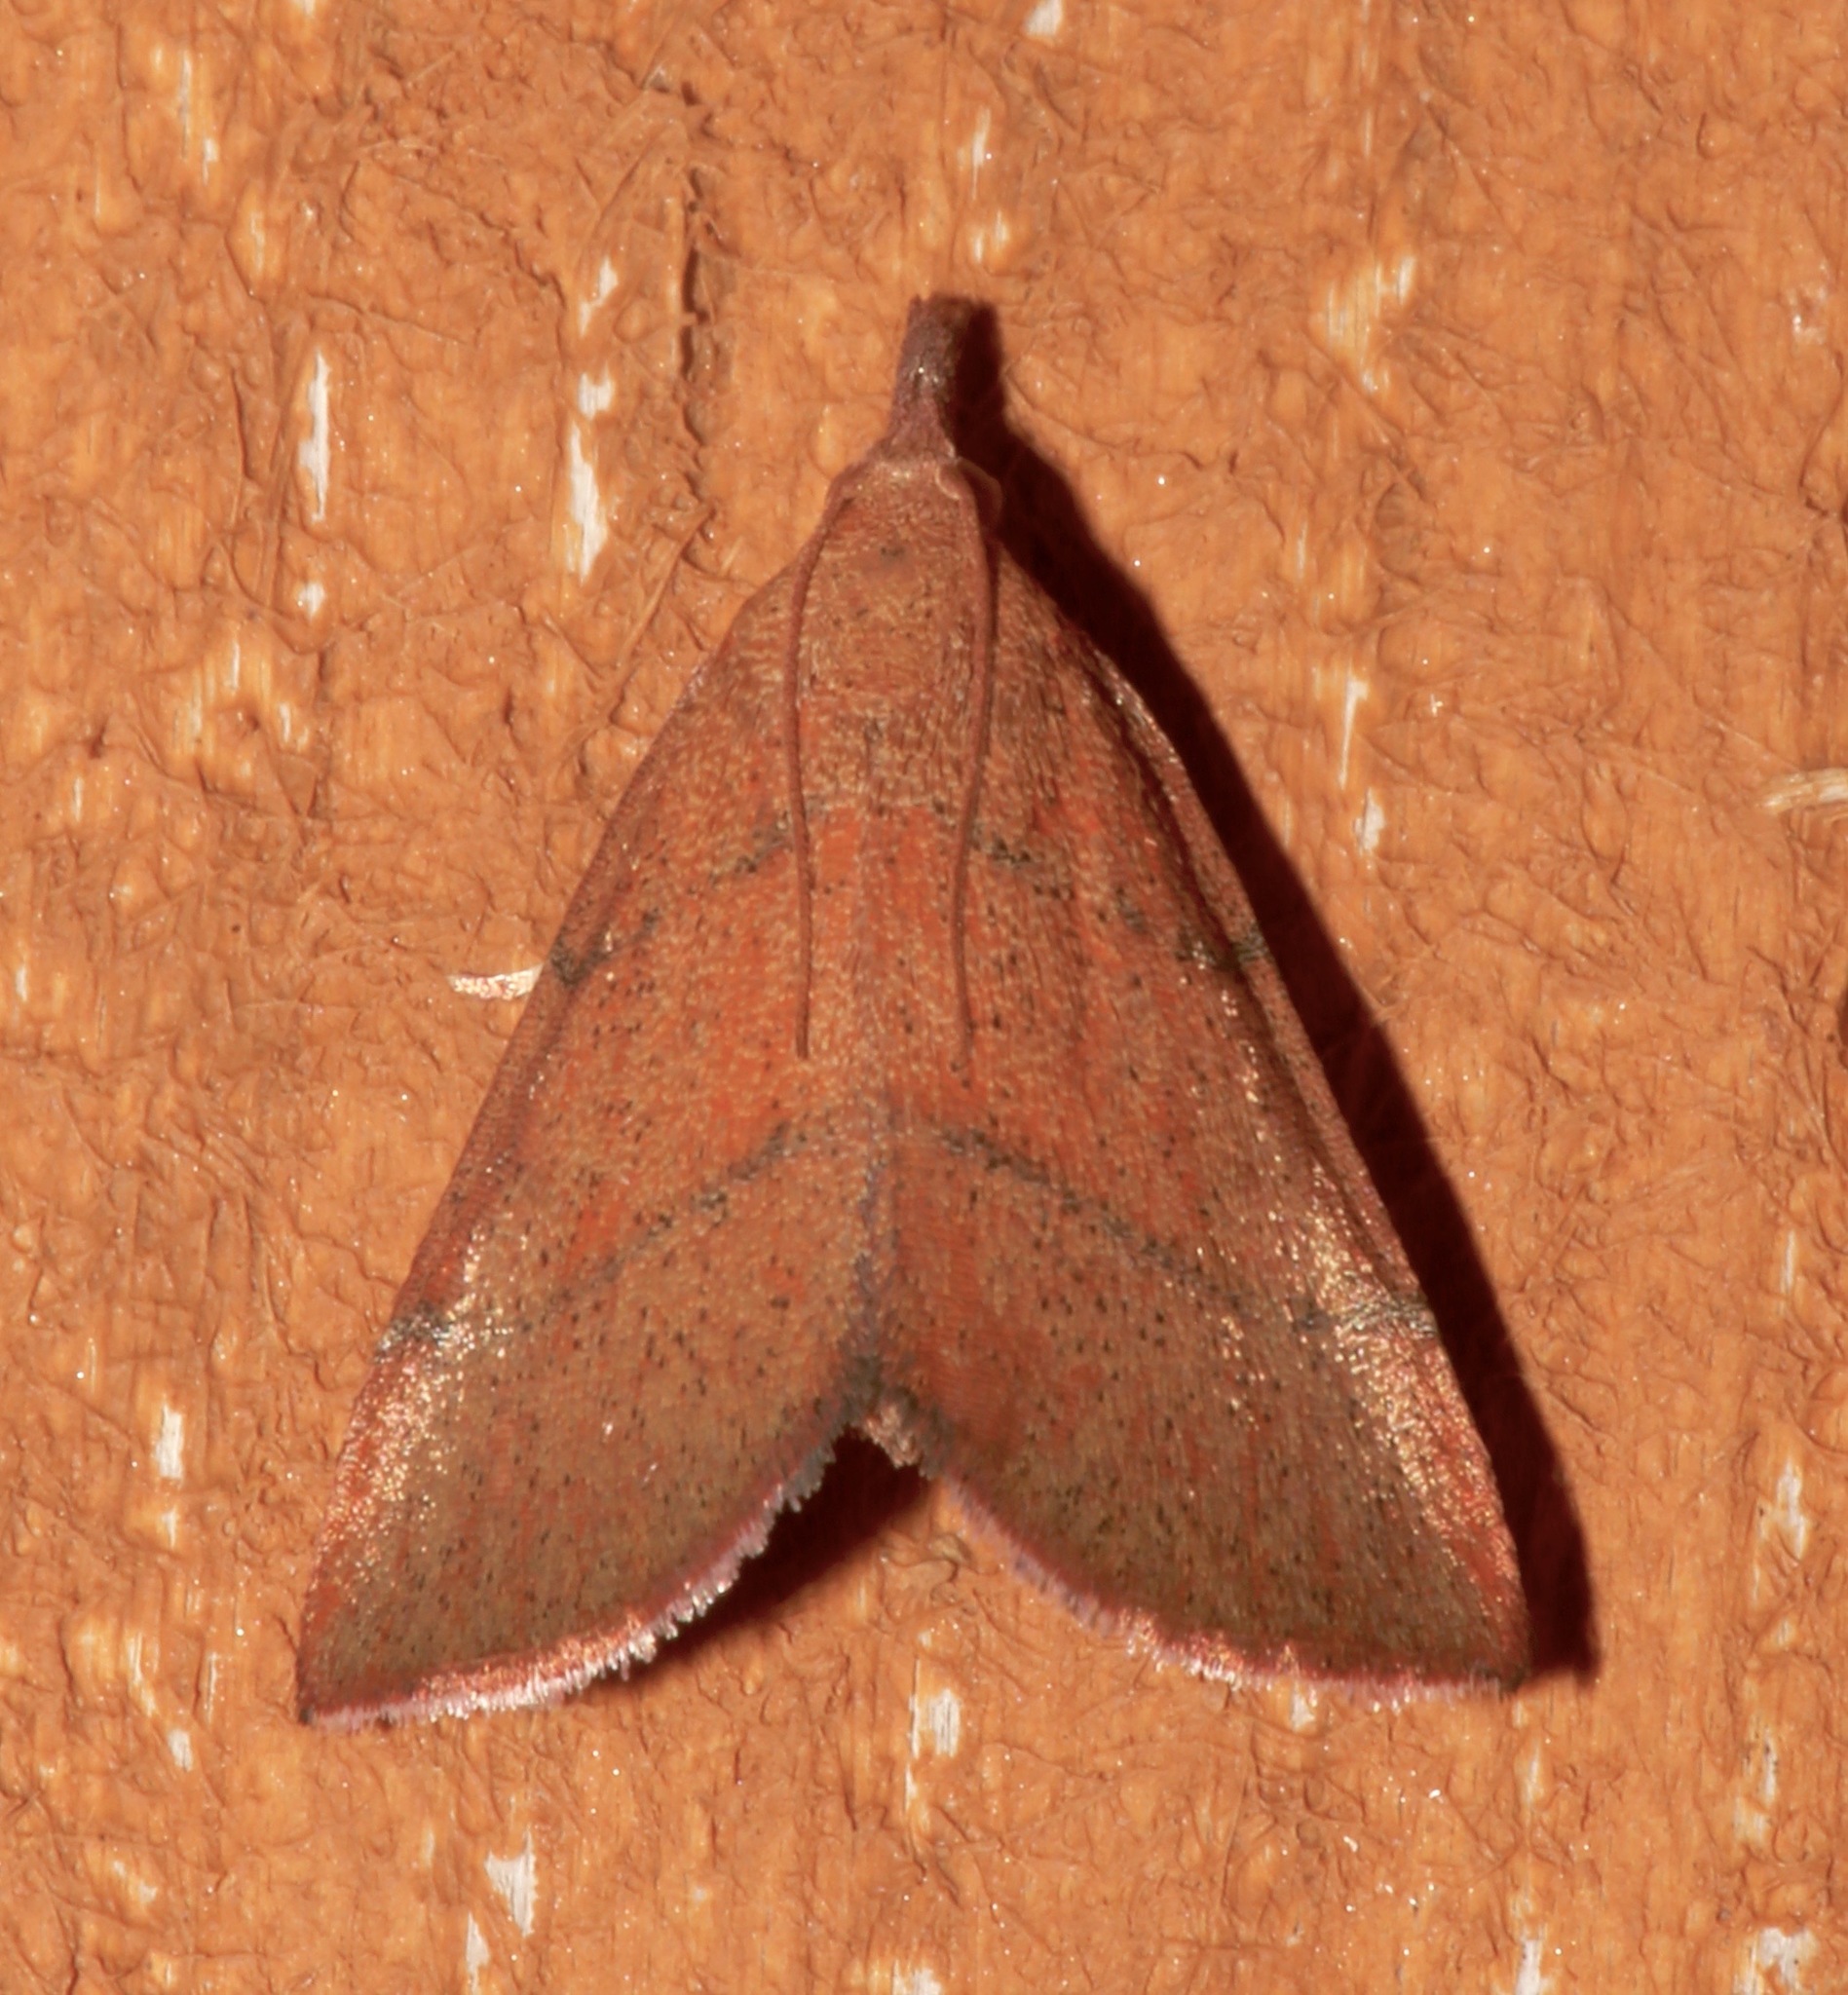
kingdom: Animalia
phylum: Arthropoda
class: Insecta
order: Lepidoptera
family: Pyralidae
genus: Lepidomys
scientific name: Lepidomys irrenosa
